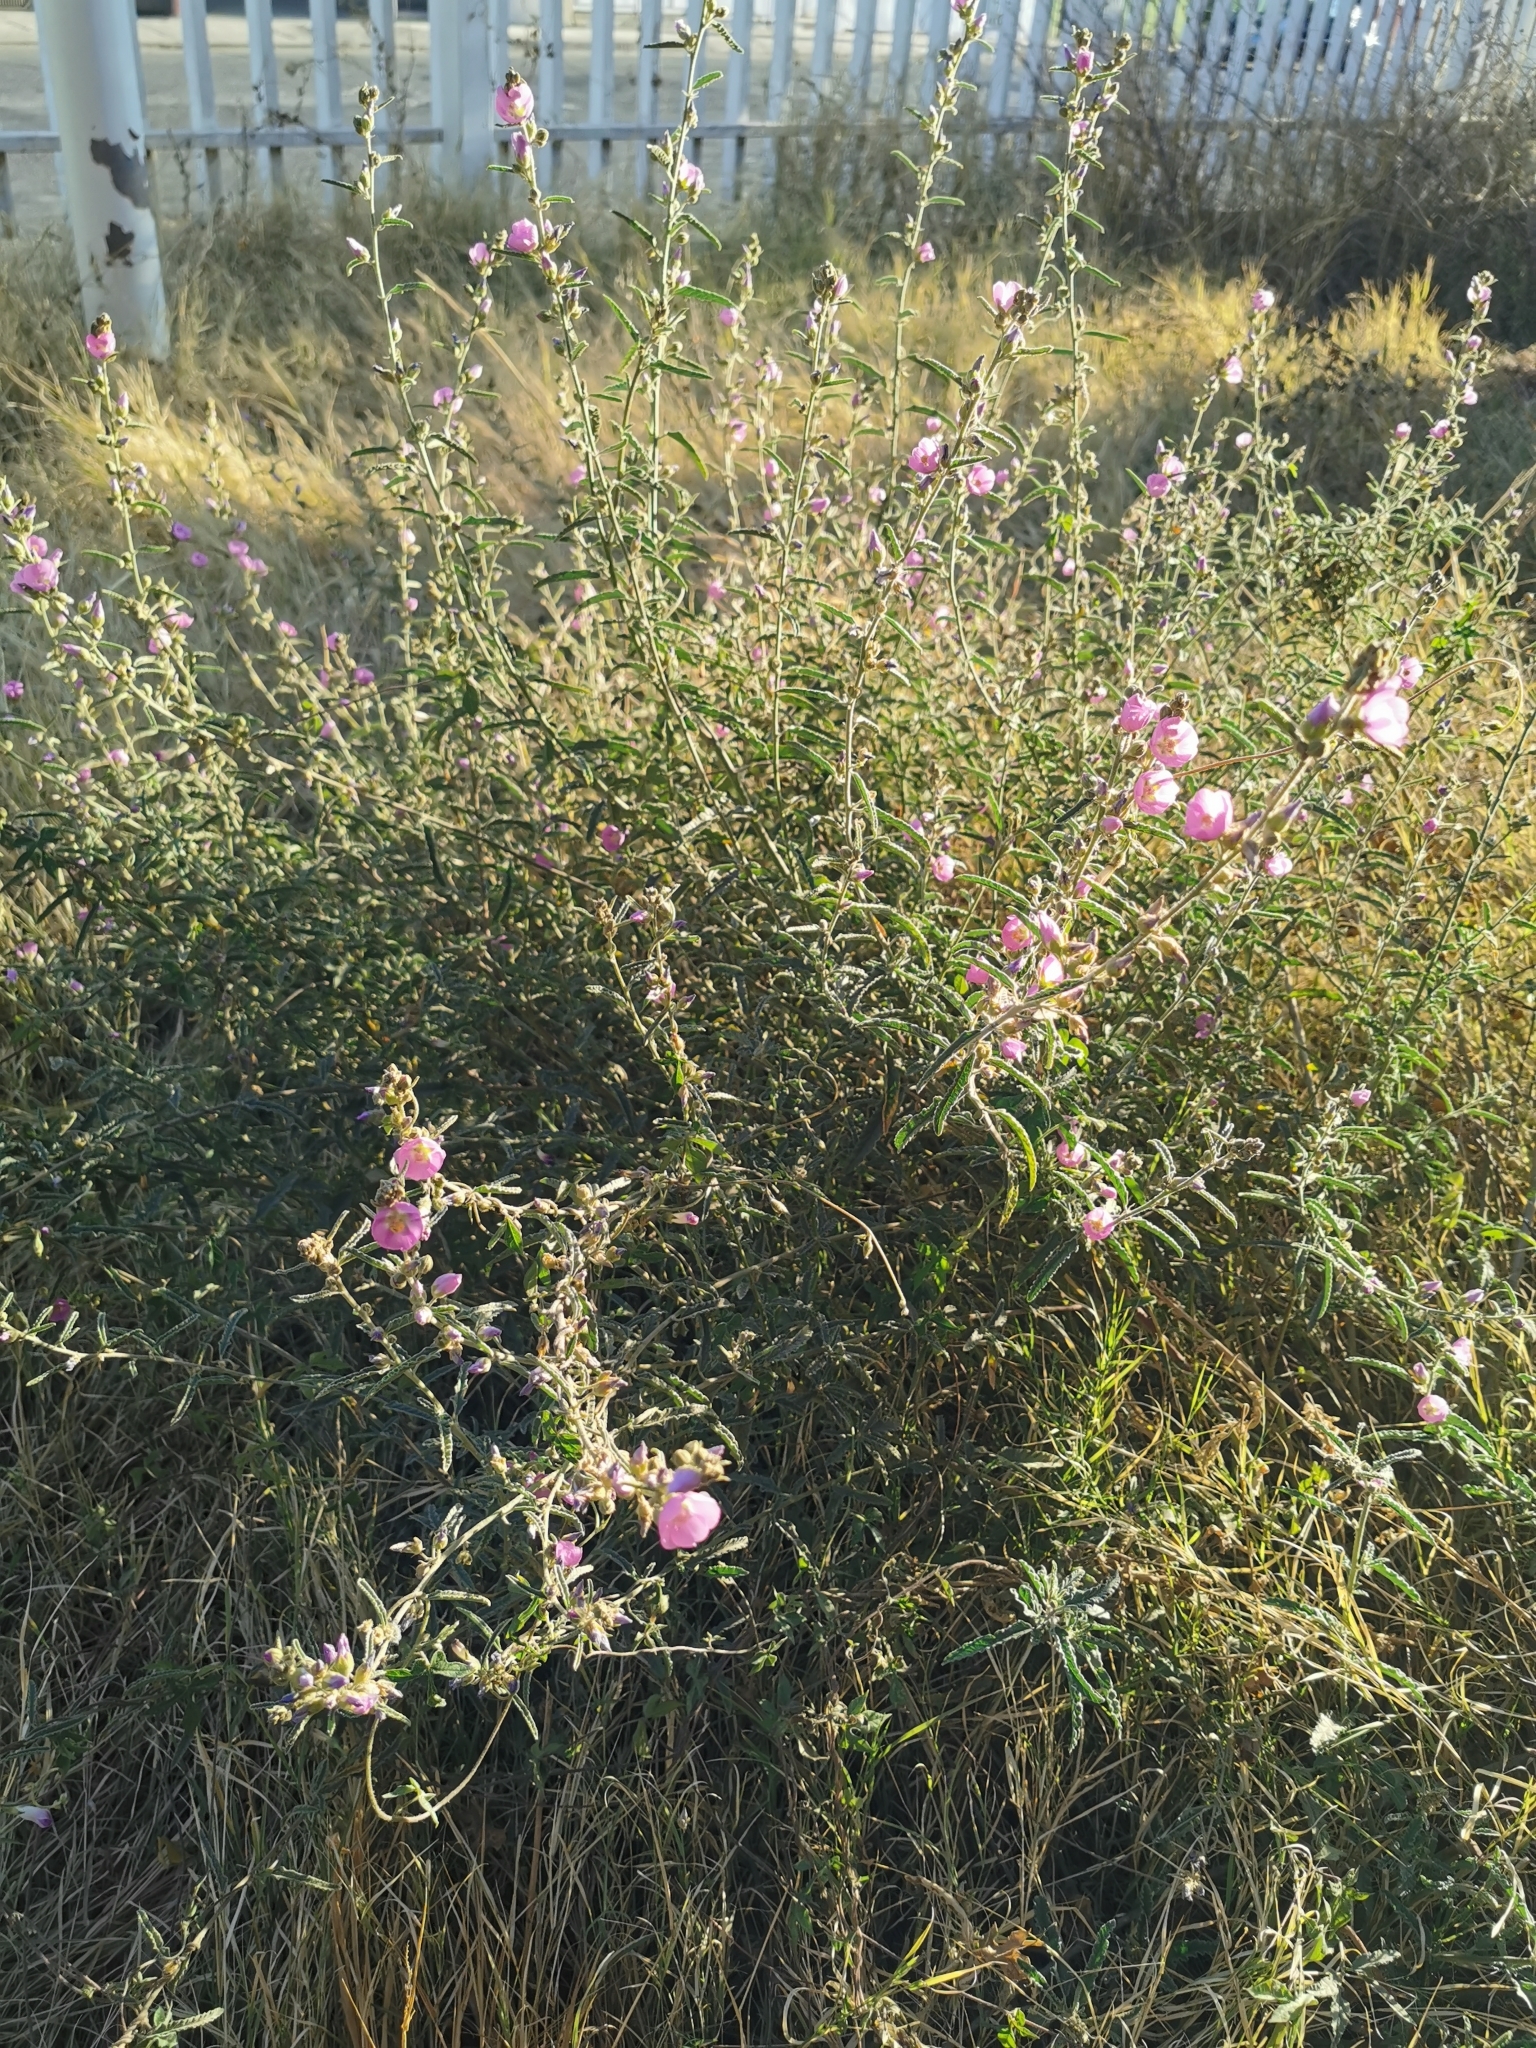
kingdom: Plantae
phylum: Tracheophyta
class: Magnoliopsida
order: Malvales
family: Malvaceae
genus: Sphaeralcea
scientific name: Sphaeralcea angustifolia
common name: Copper globe-mallow
